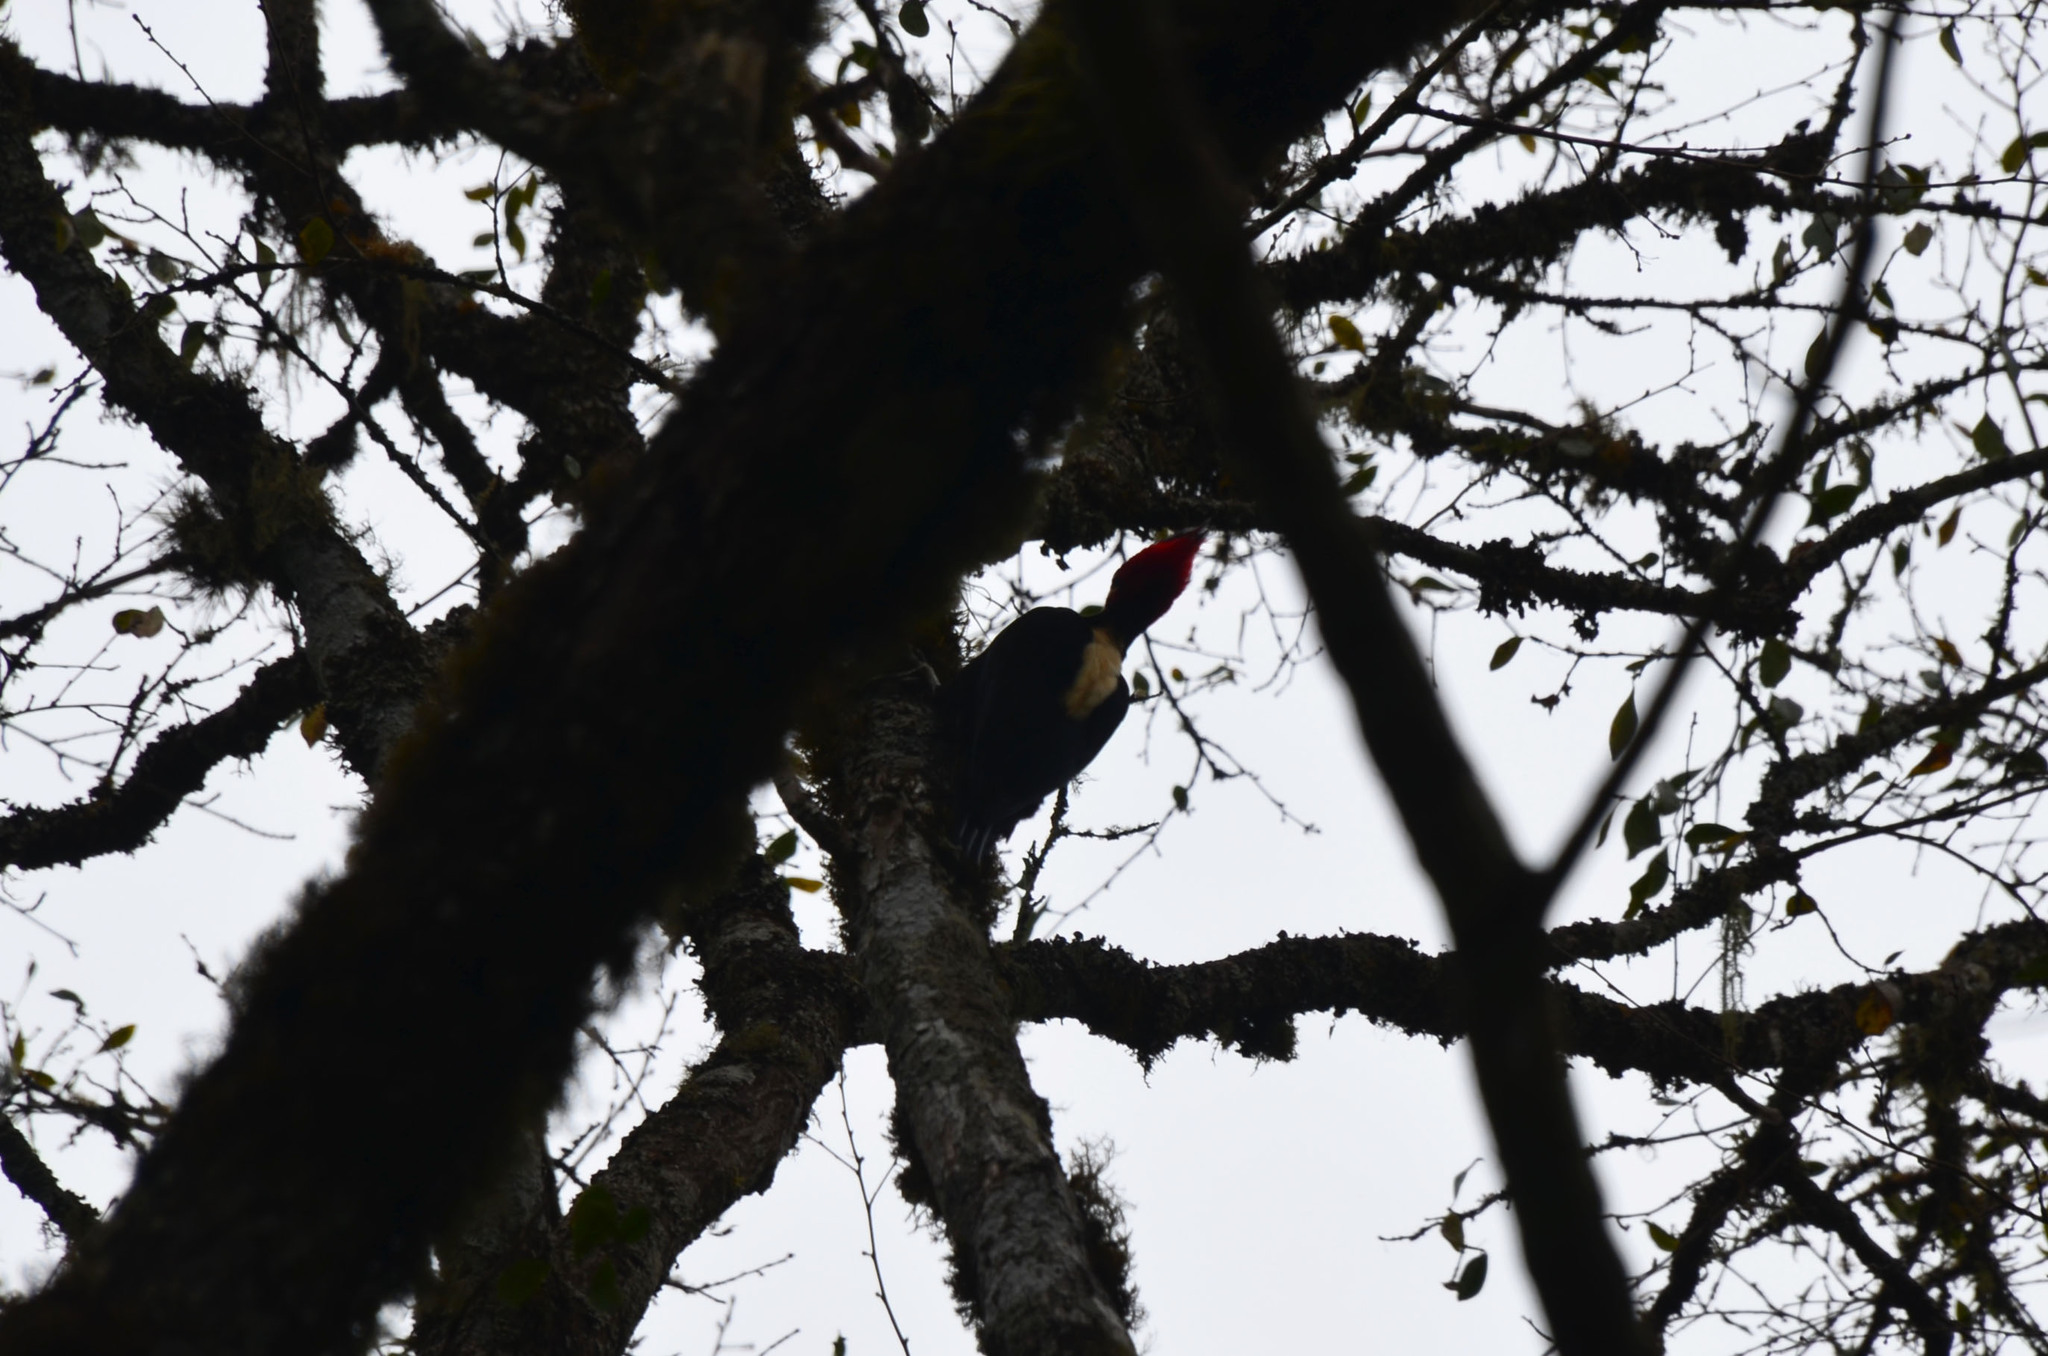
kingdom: Animalia
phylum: Chordata
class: Aves
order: Piciformes
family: Picidae
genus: Campephilus
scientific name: Campephilus leucopogon
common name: Cream-backed woodpecker
